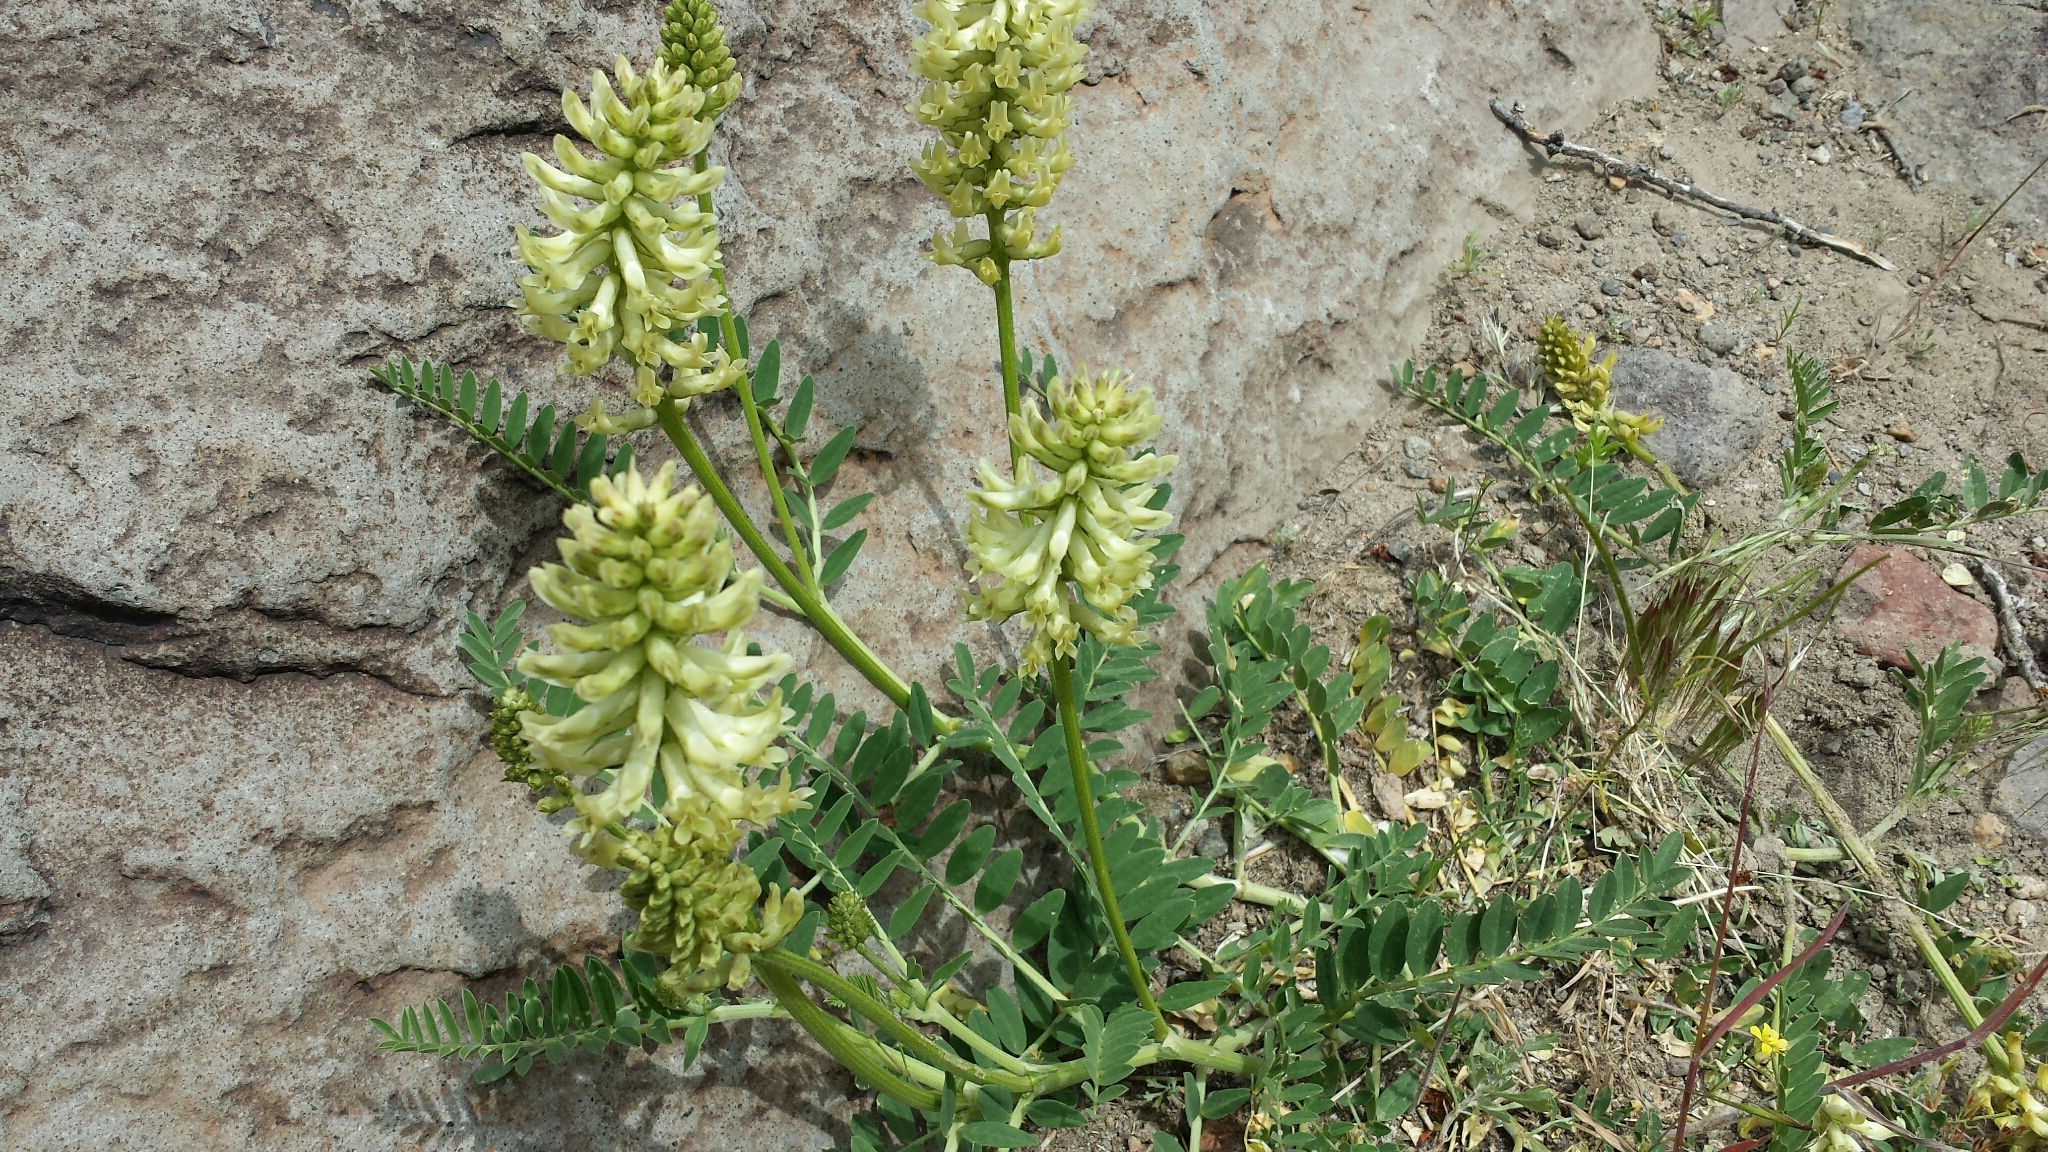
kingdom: Plantae
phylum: Tracheophyta
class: Magnoliopsida
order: Fabales
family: Fabaceae
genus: Astragalus
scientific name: Astragalus canadensis
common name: Canada milk-vetch
